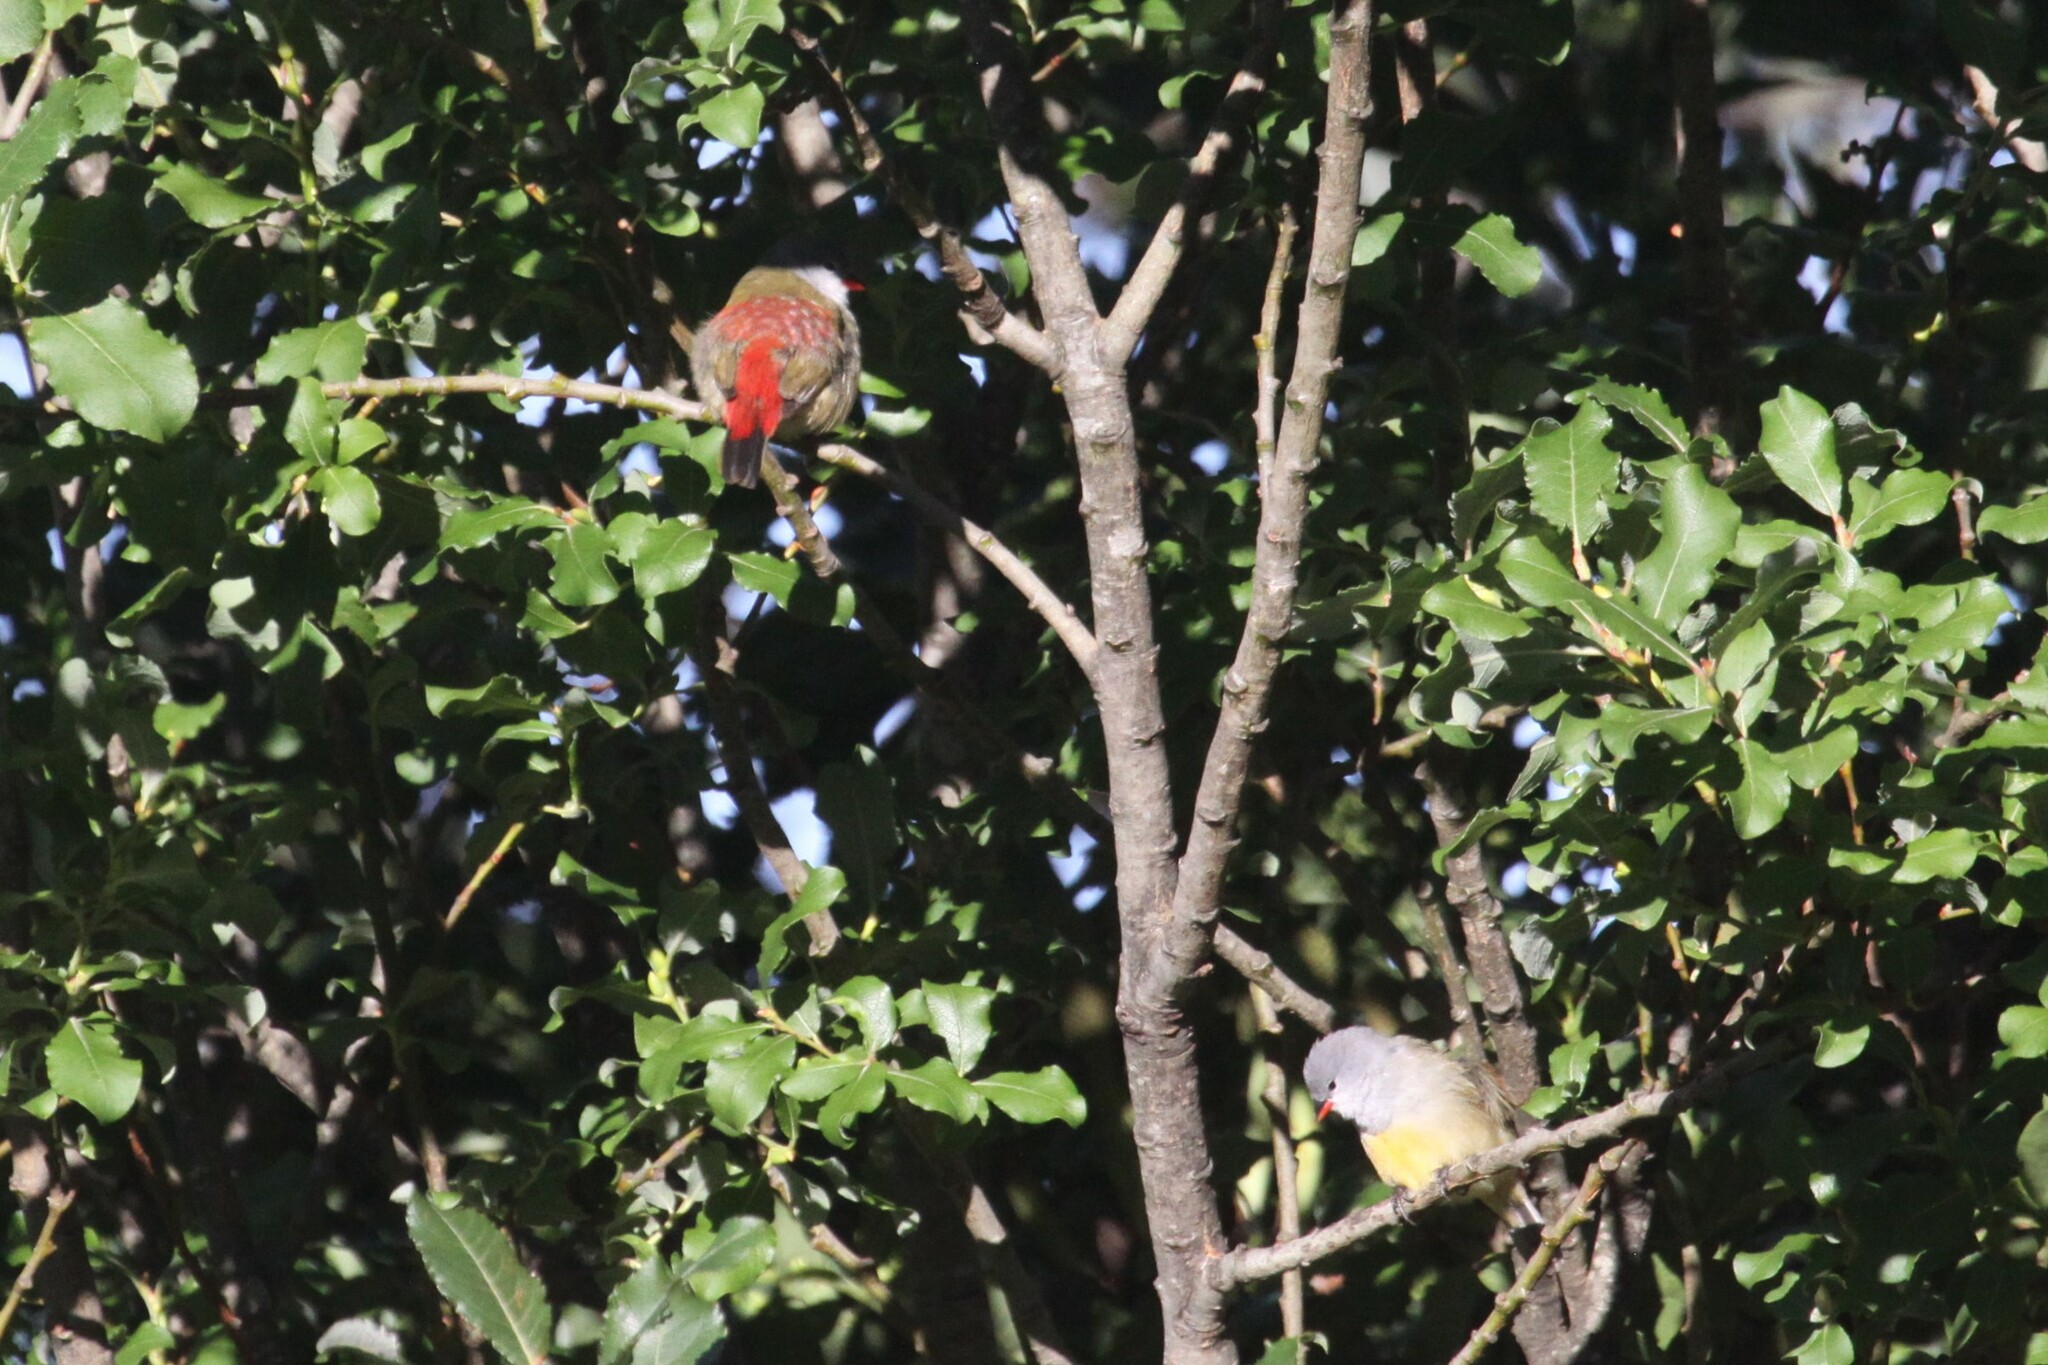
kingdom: Animalia
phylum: Chordata
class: Aves
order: Passeriformes
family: Estrildidae
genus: Coccopygia
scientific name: Coccopygia quartinia
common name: Yellow-bellied waxbill
